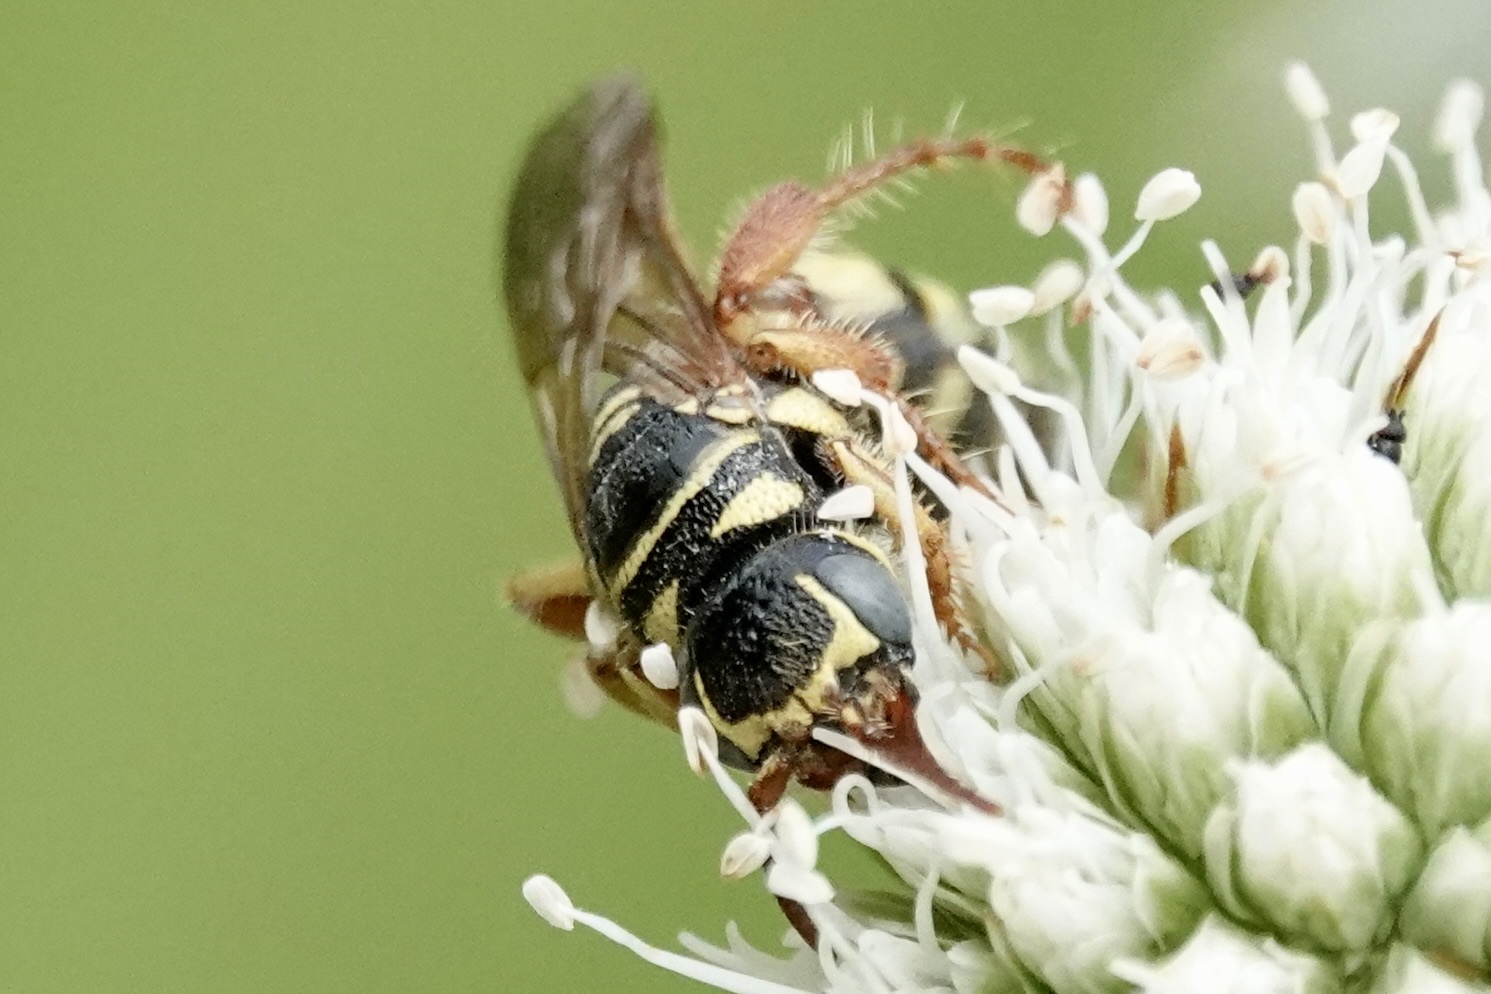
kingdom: Animalia
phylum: Arthropoda
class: Insecta
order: Hymenoptera
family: Tiphiidae
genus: Myzinum
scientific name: Myzinum quinquecinctum
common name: Five-banded thynnid wasp
